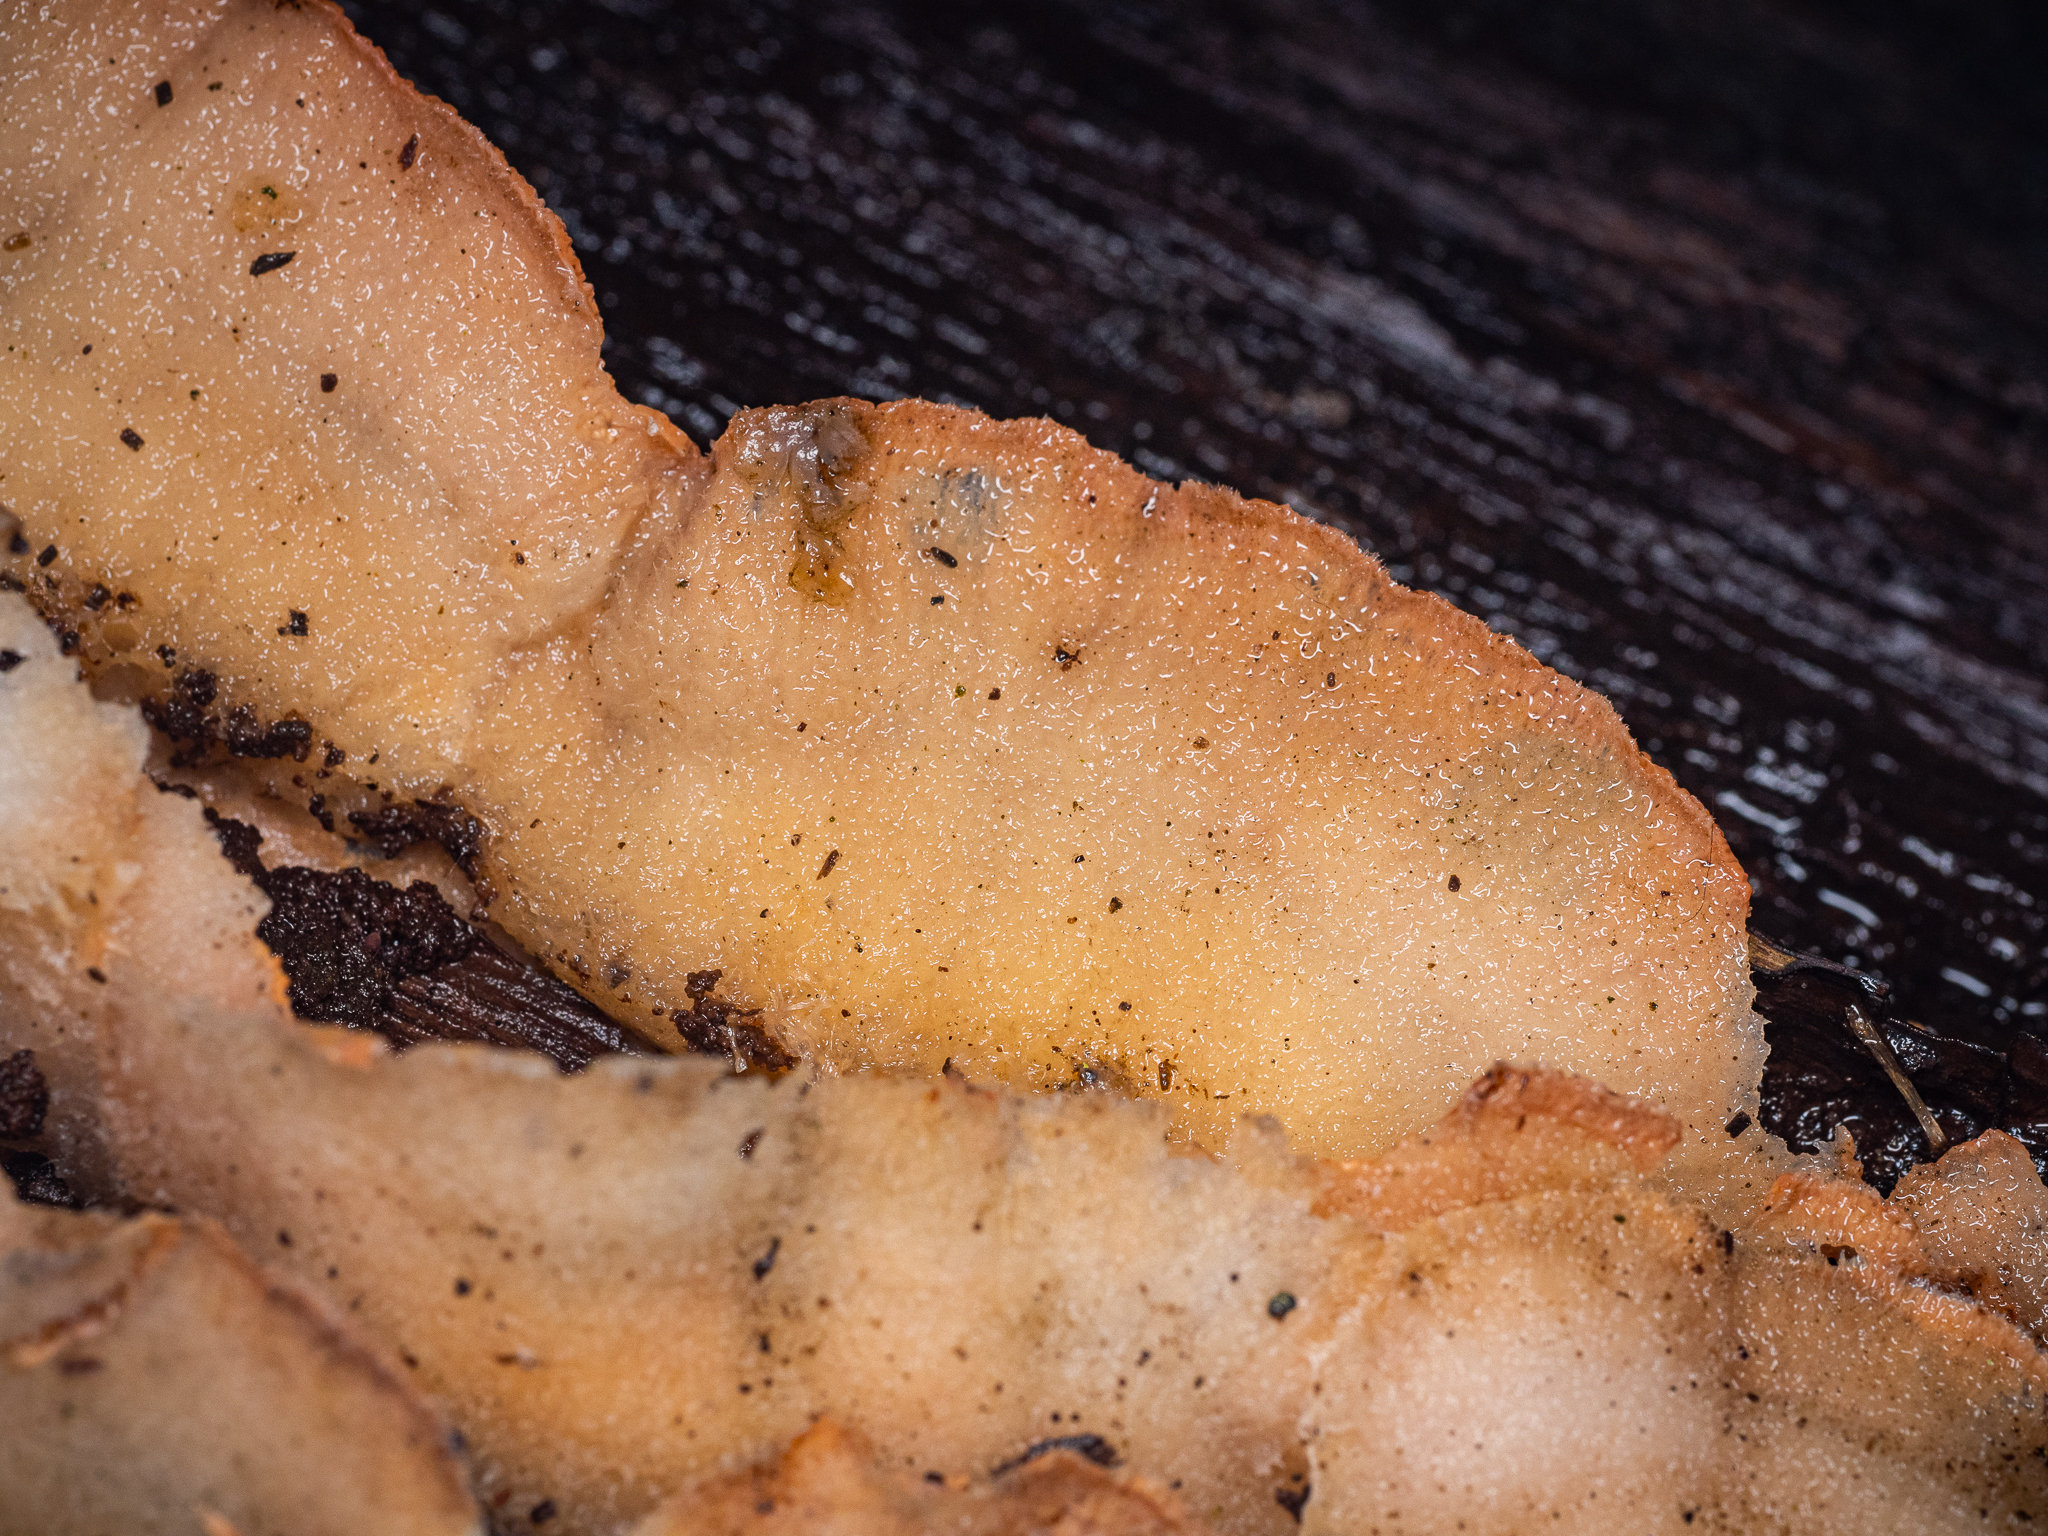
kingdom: Fungi
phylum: Basidiomycota
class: Agaricomycetes
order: Polyporales
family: Meruliaceae
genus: Phlebia
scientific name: Phlebia tremellosa
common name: Jelly rot
